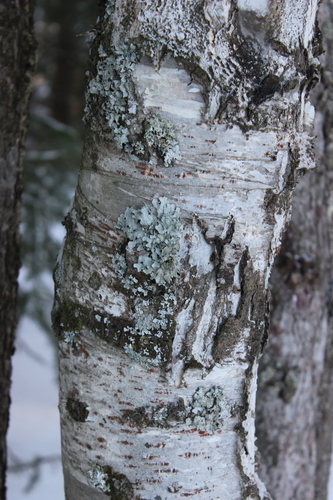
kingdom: Fungi
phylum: Ascomycota
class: Lecanoromycetes
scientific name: Lecanoromycetes
